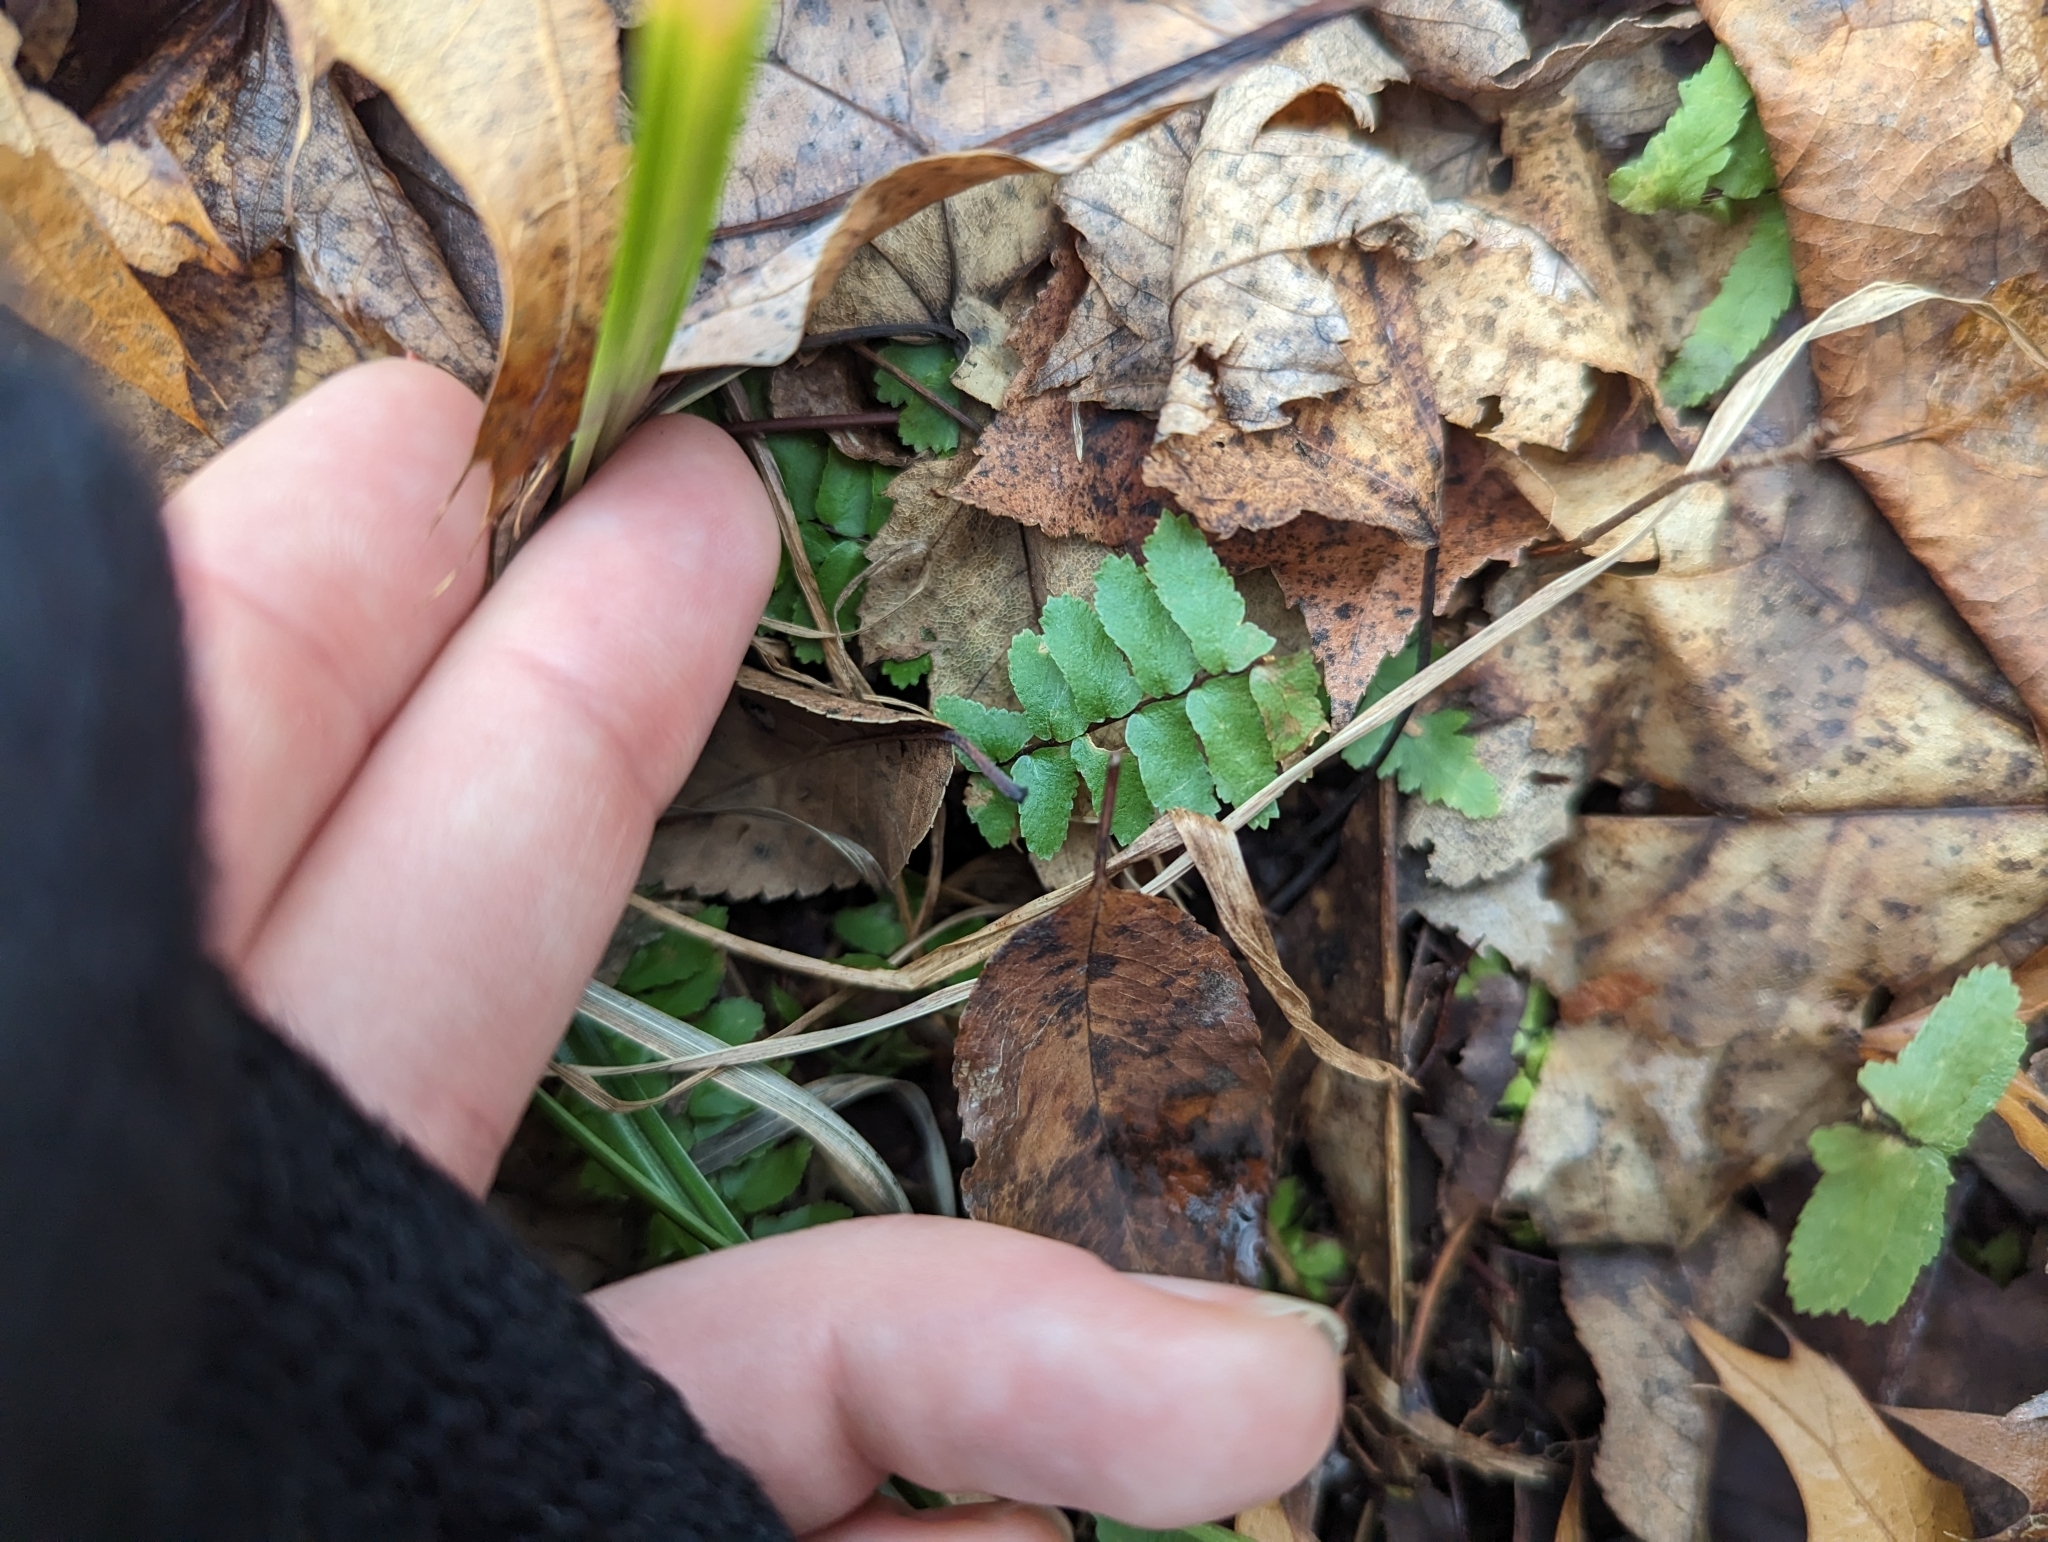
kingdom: Plantae
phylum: Tracheophyta
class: Polypodiopsida
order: Polypodiales
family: Aspleniaceae
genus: Asplenium
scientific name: Asplenium platyneuron
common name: Ebony spleenwort
